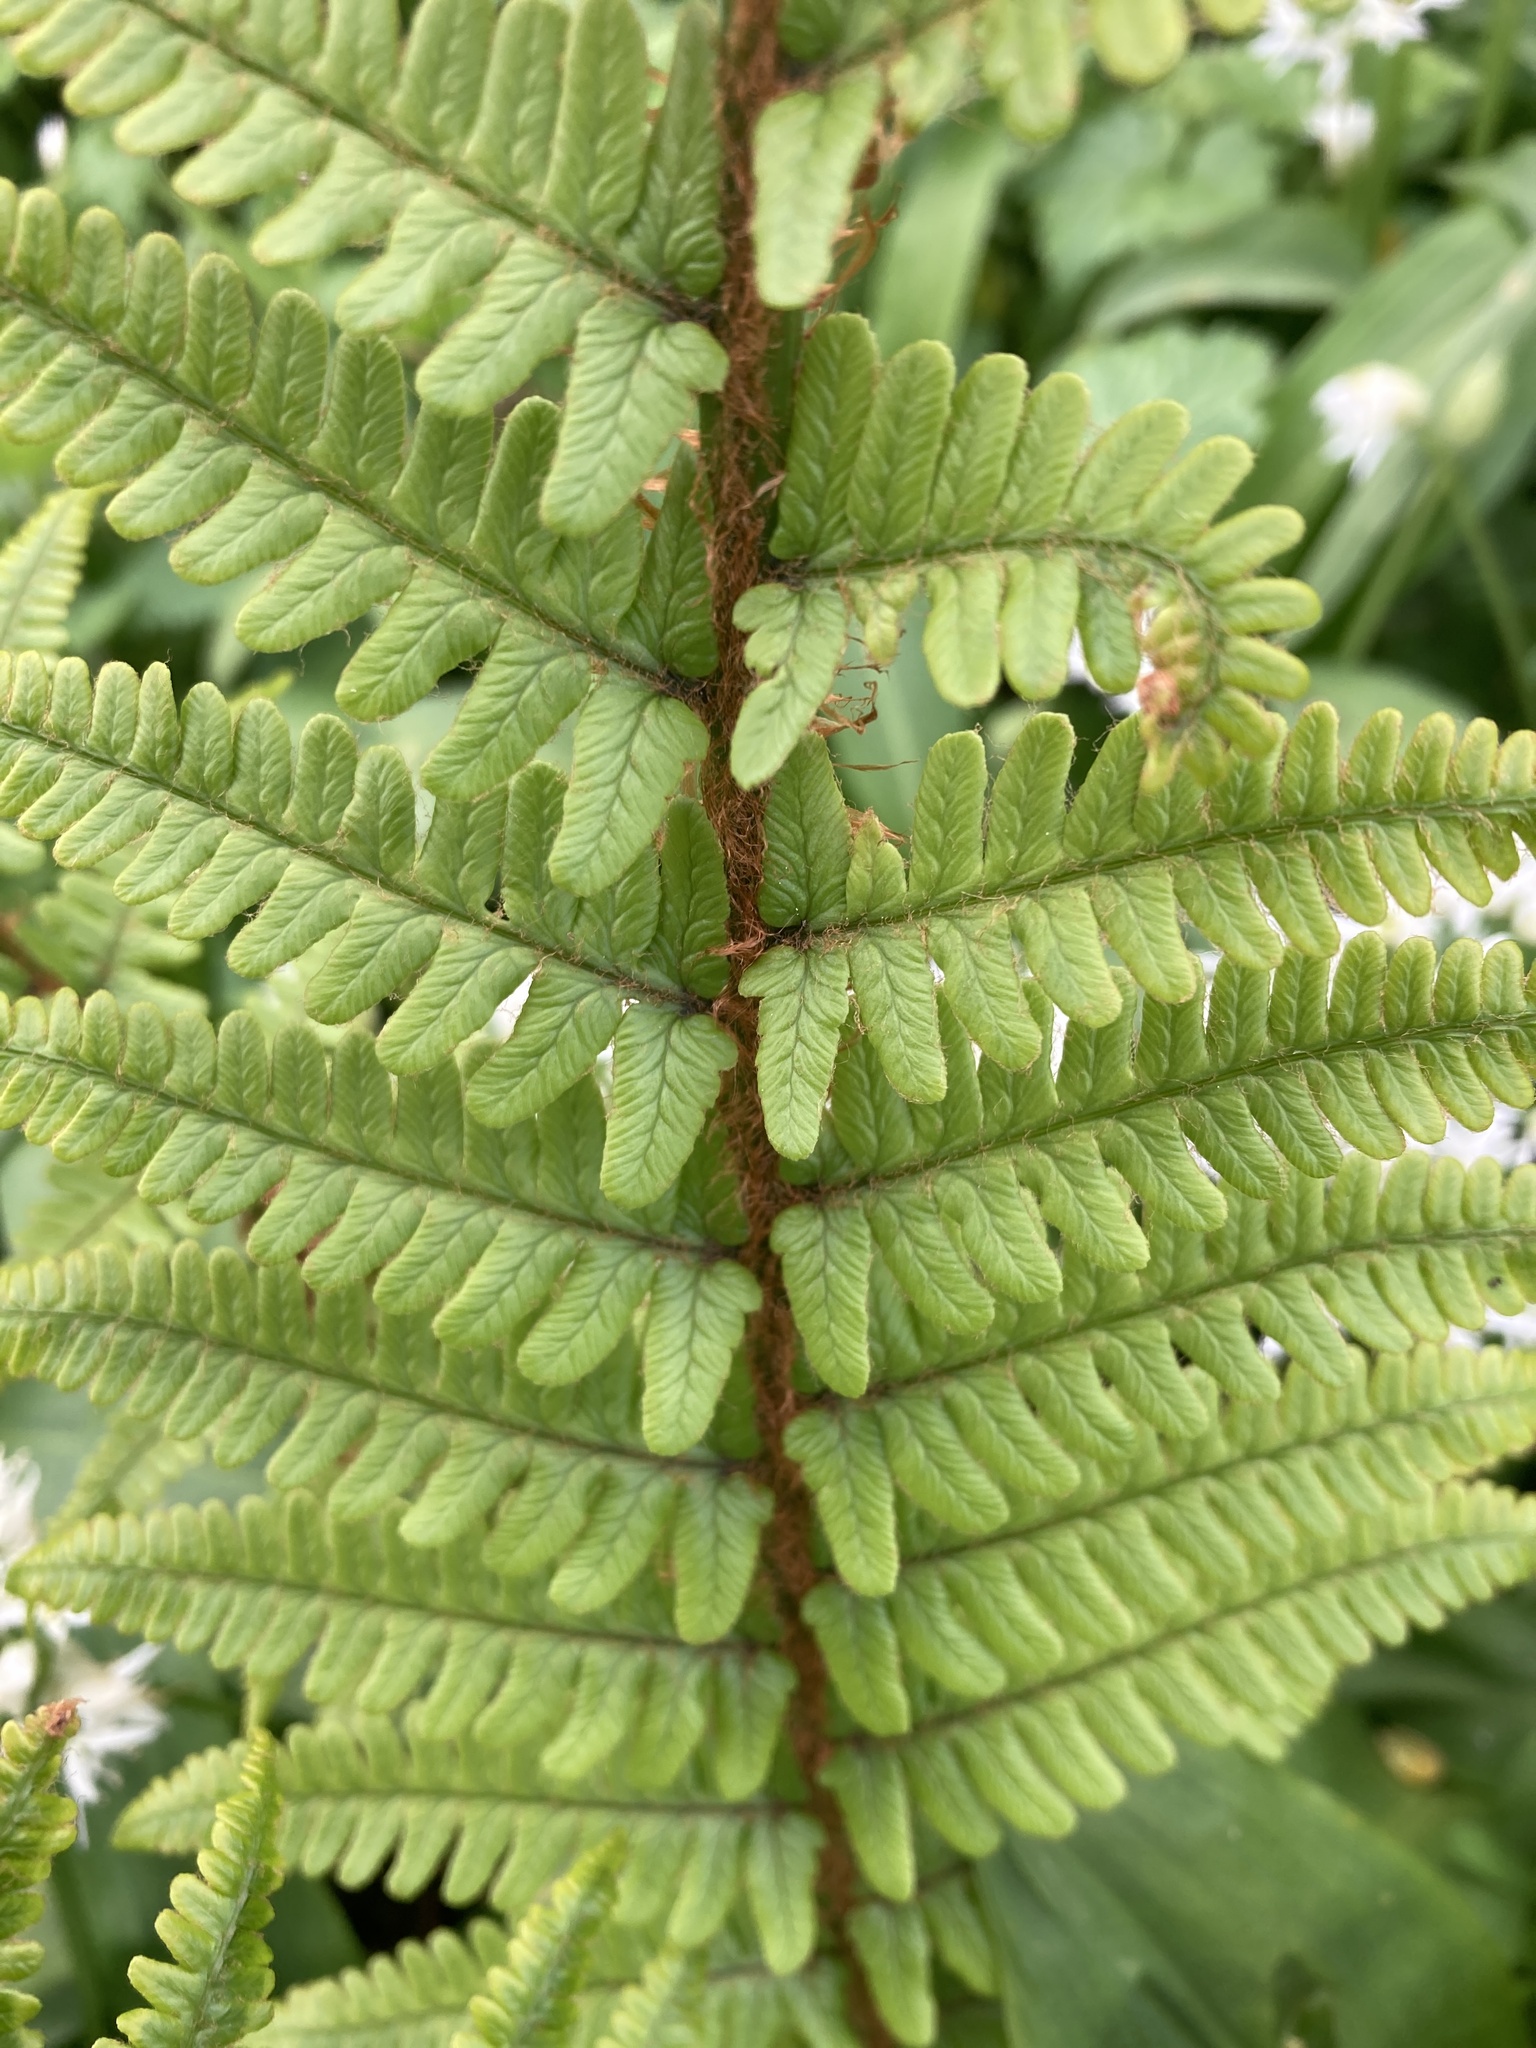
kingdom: Plantae
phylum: Tracheophyta
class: Polypodiopsida
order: Polypodiales
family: Dryopteridaceae
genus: Dryopteris
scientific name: Dryopteris filix-mas
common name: Male fern
